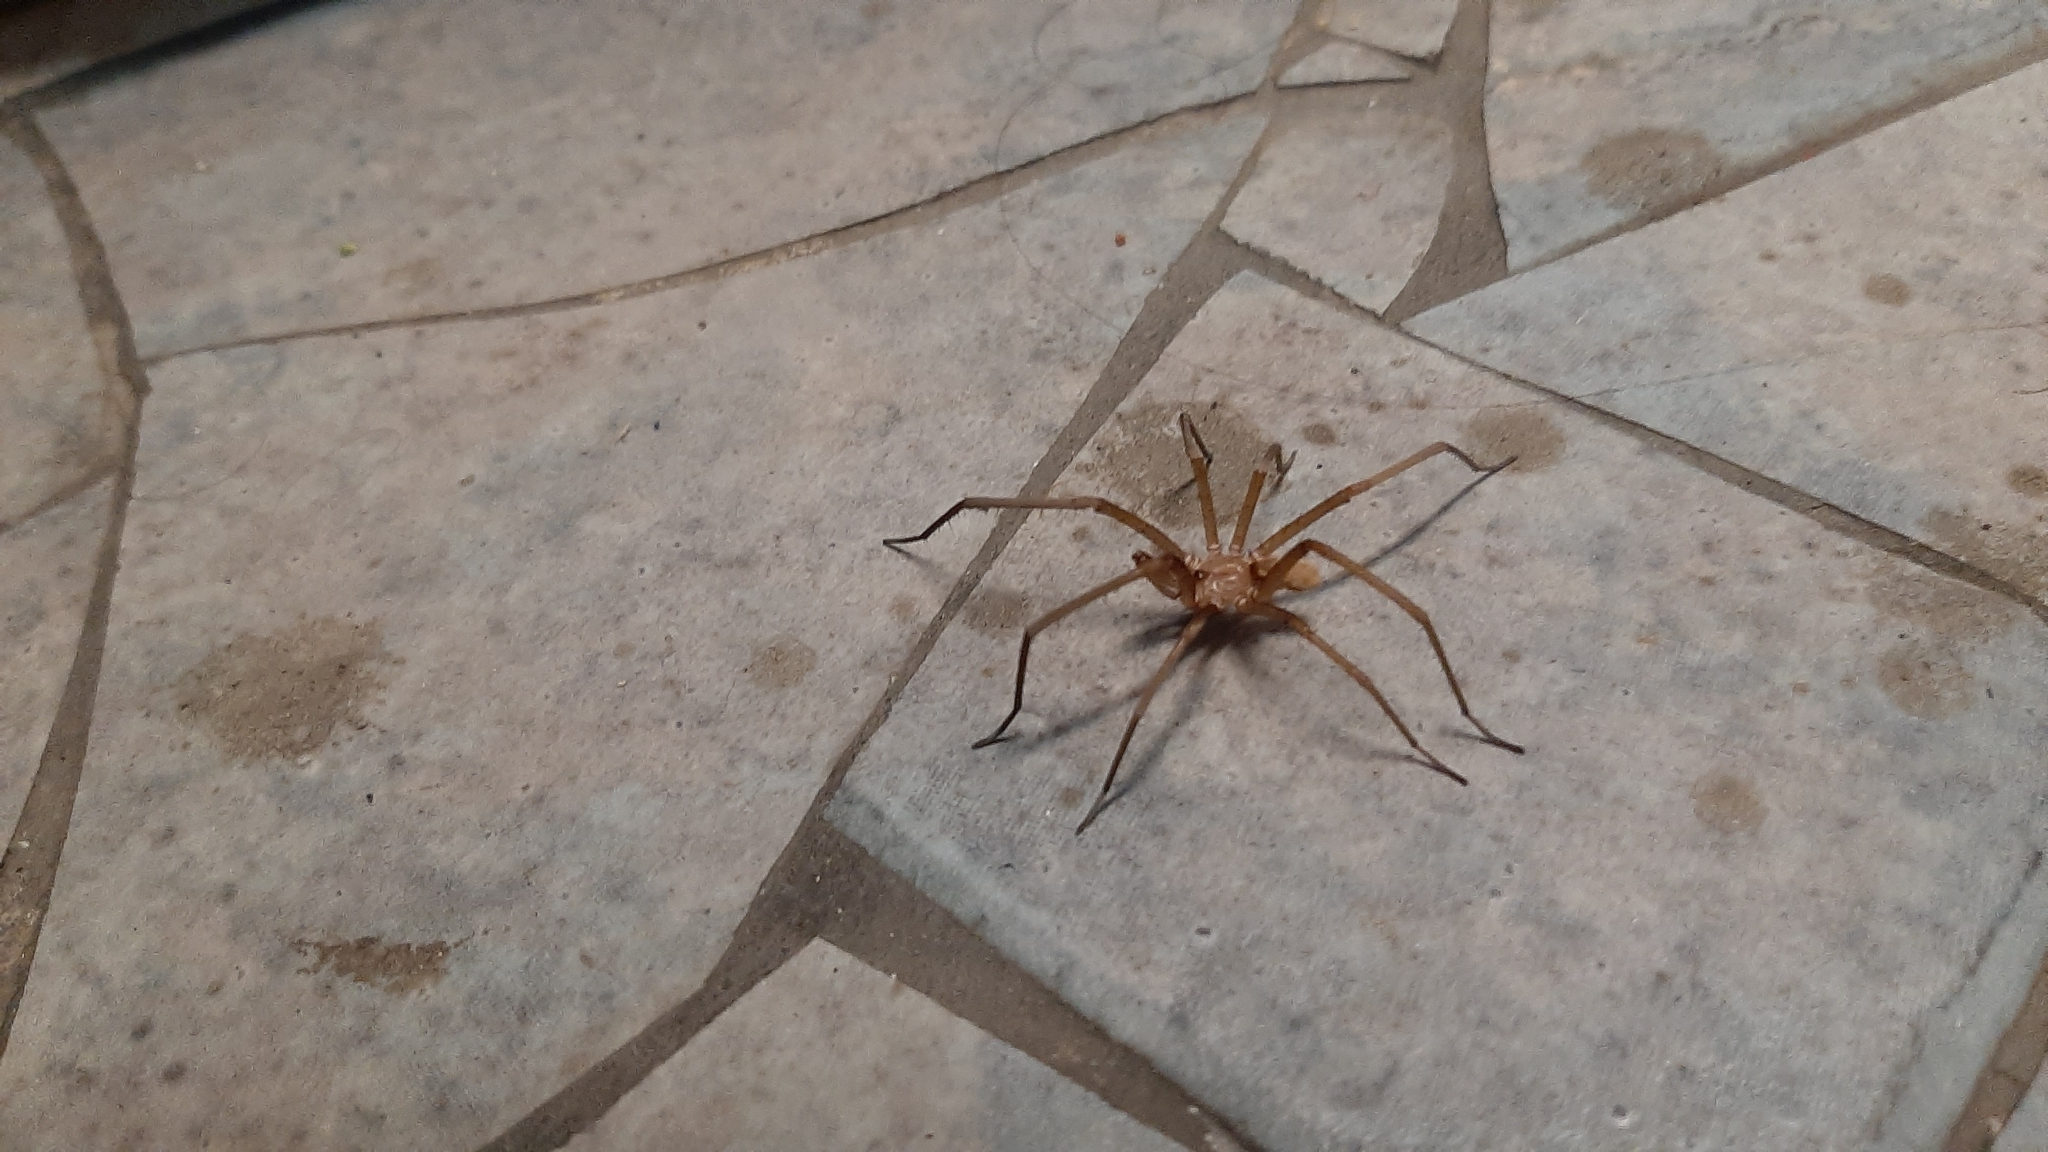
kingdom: Animalia
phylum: Arthropoda
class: Arachnida
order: Araneae
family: Filistatidae
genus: Kukulcania
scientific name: Kukulcania hibernalis
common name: Crevice weaver
